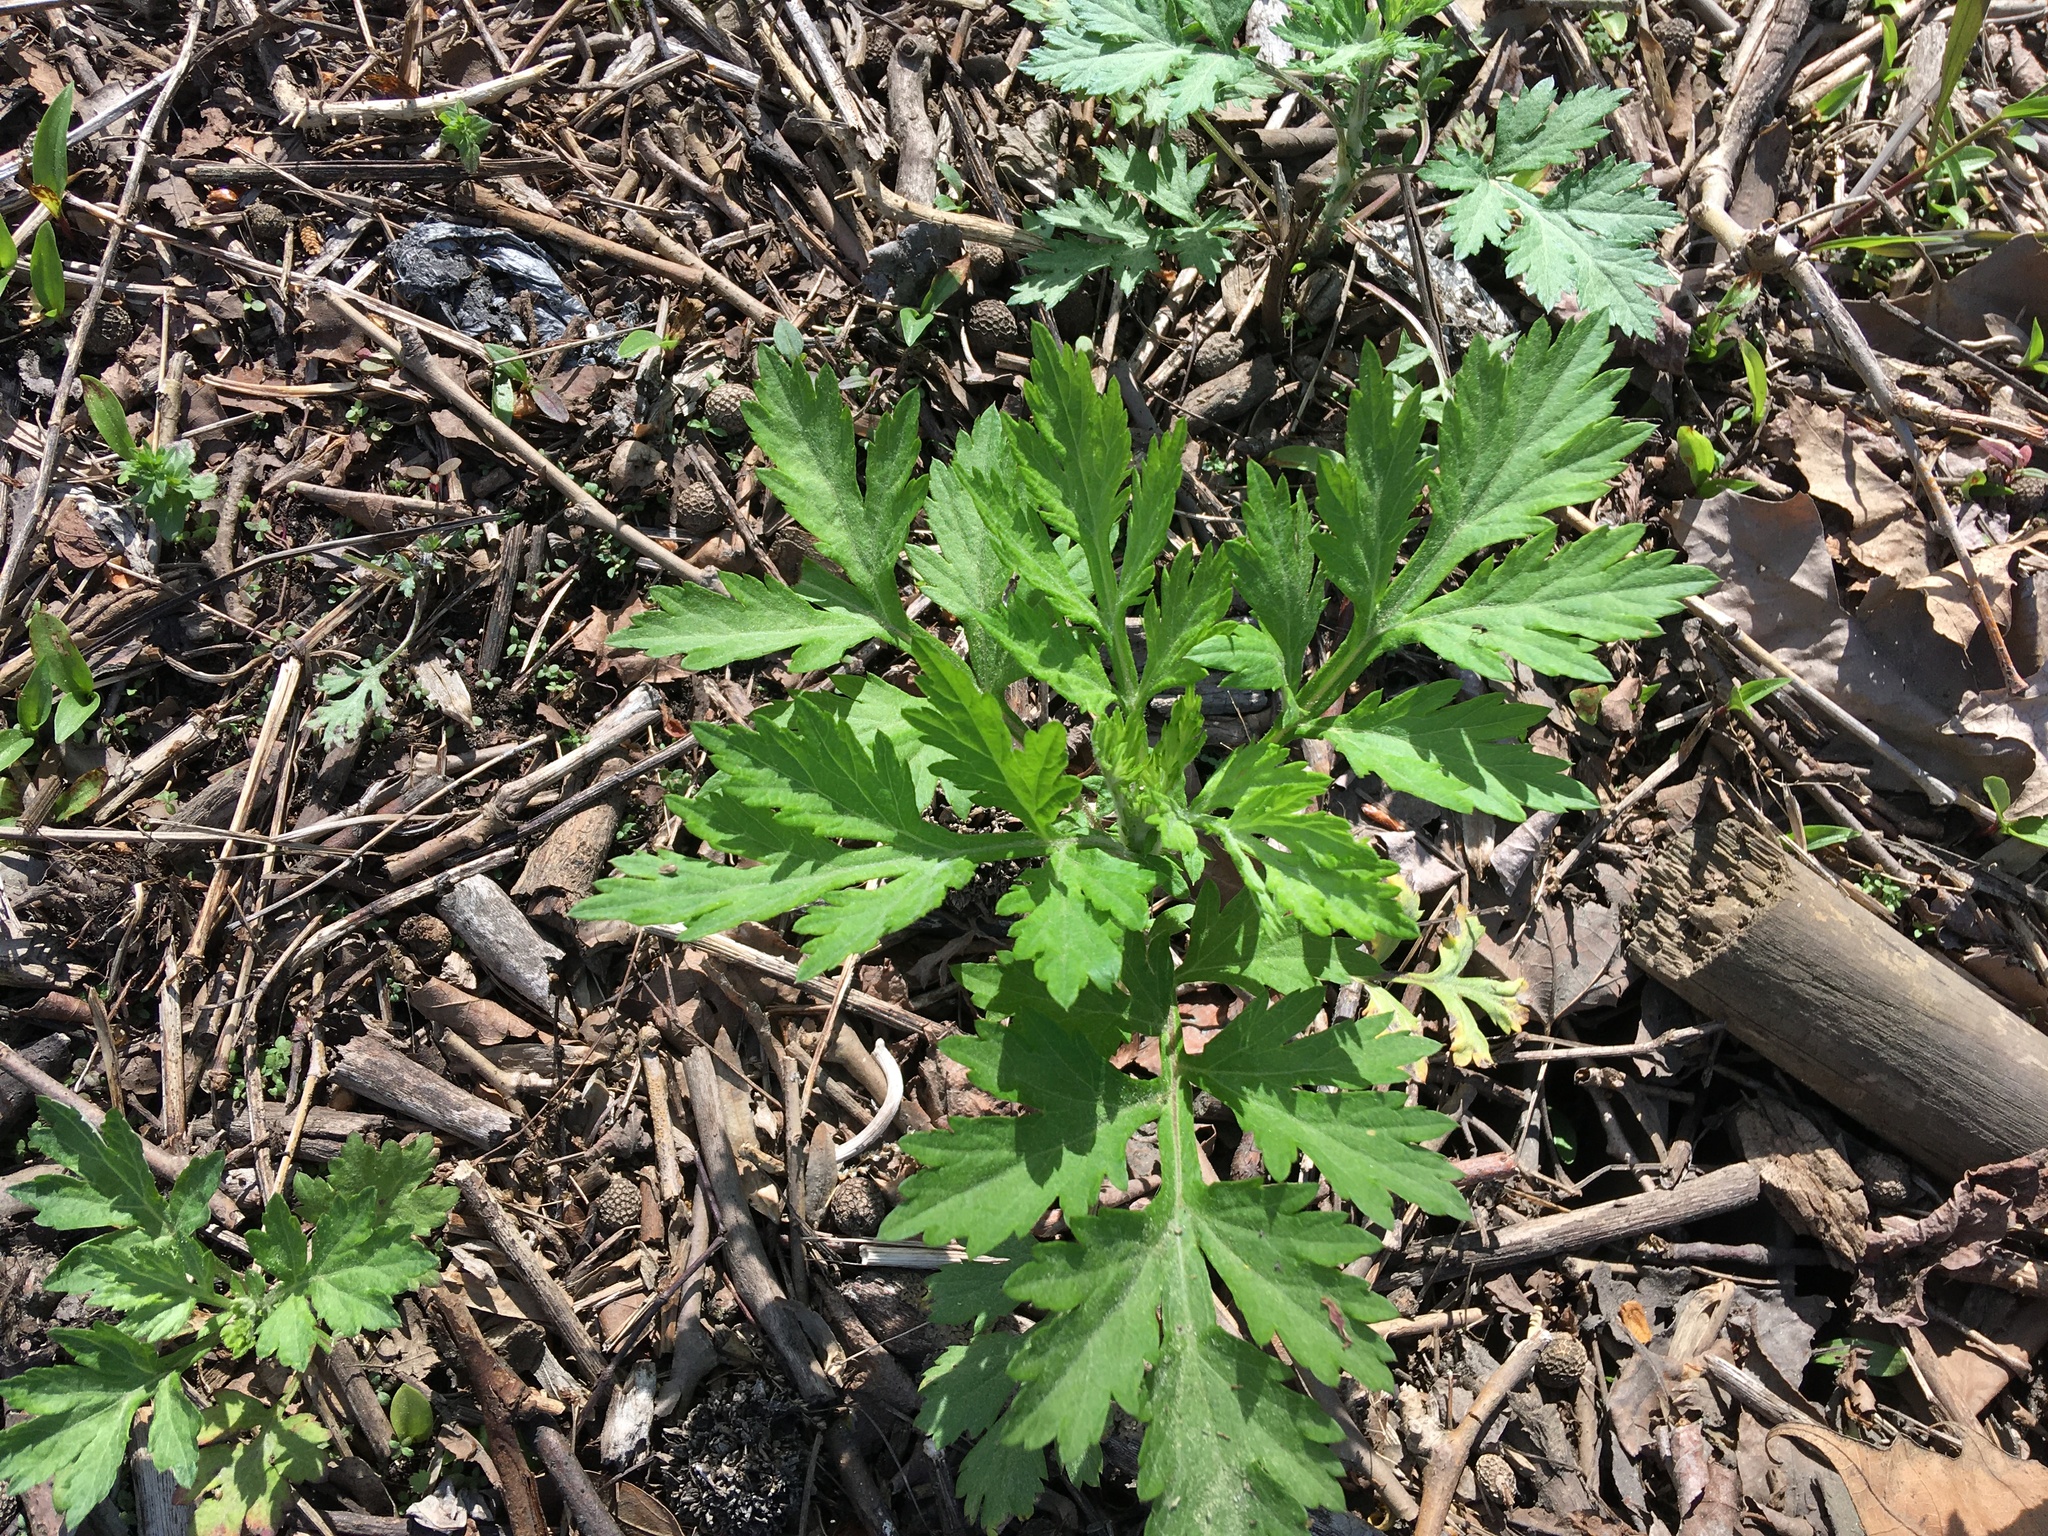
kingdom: Plantae
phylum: Tracheophyta
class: Magnoliopsida
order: Asterales
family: Asteraceae
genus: Artemisia
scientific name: Artemisia vulgaris
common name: Mugwort
